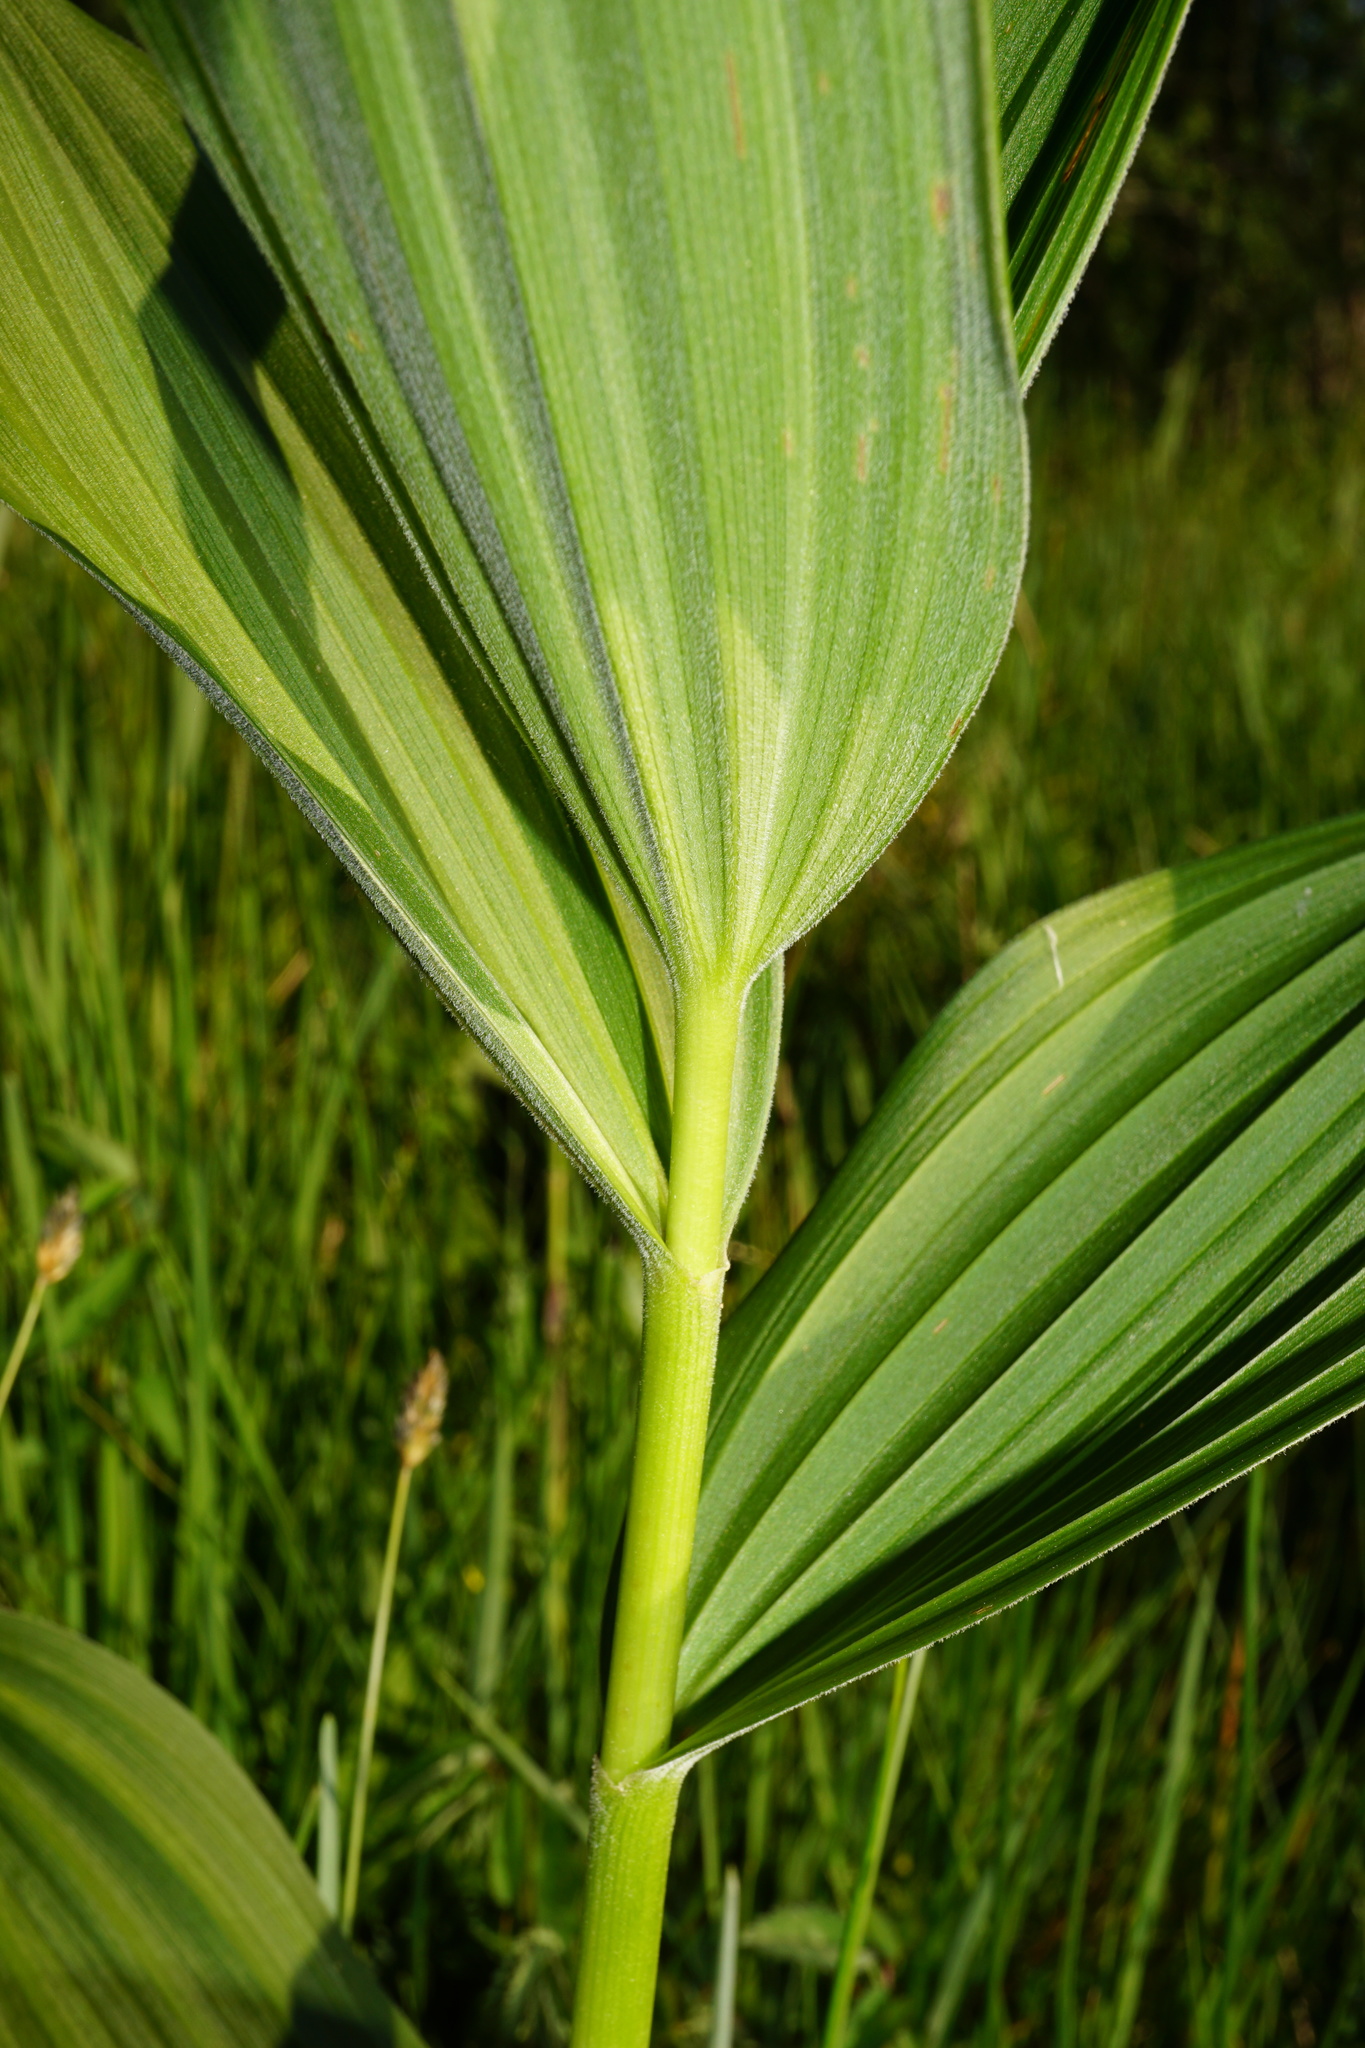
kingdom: Plantae
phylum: Tracheophyta
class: Liliopsida
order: Liliales
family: Melanthiaceae
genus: Veratrum
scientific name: Veratrum album
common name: White veratrum
